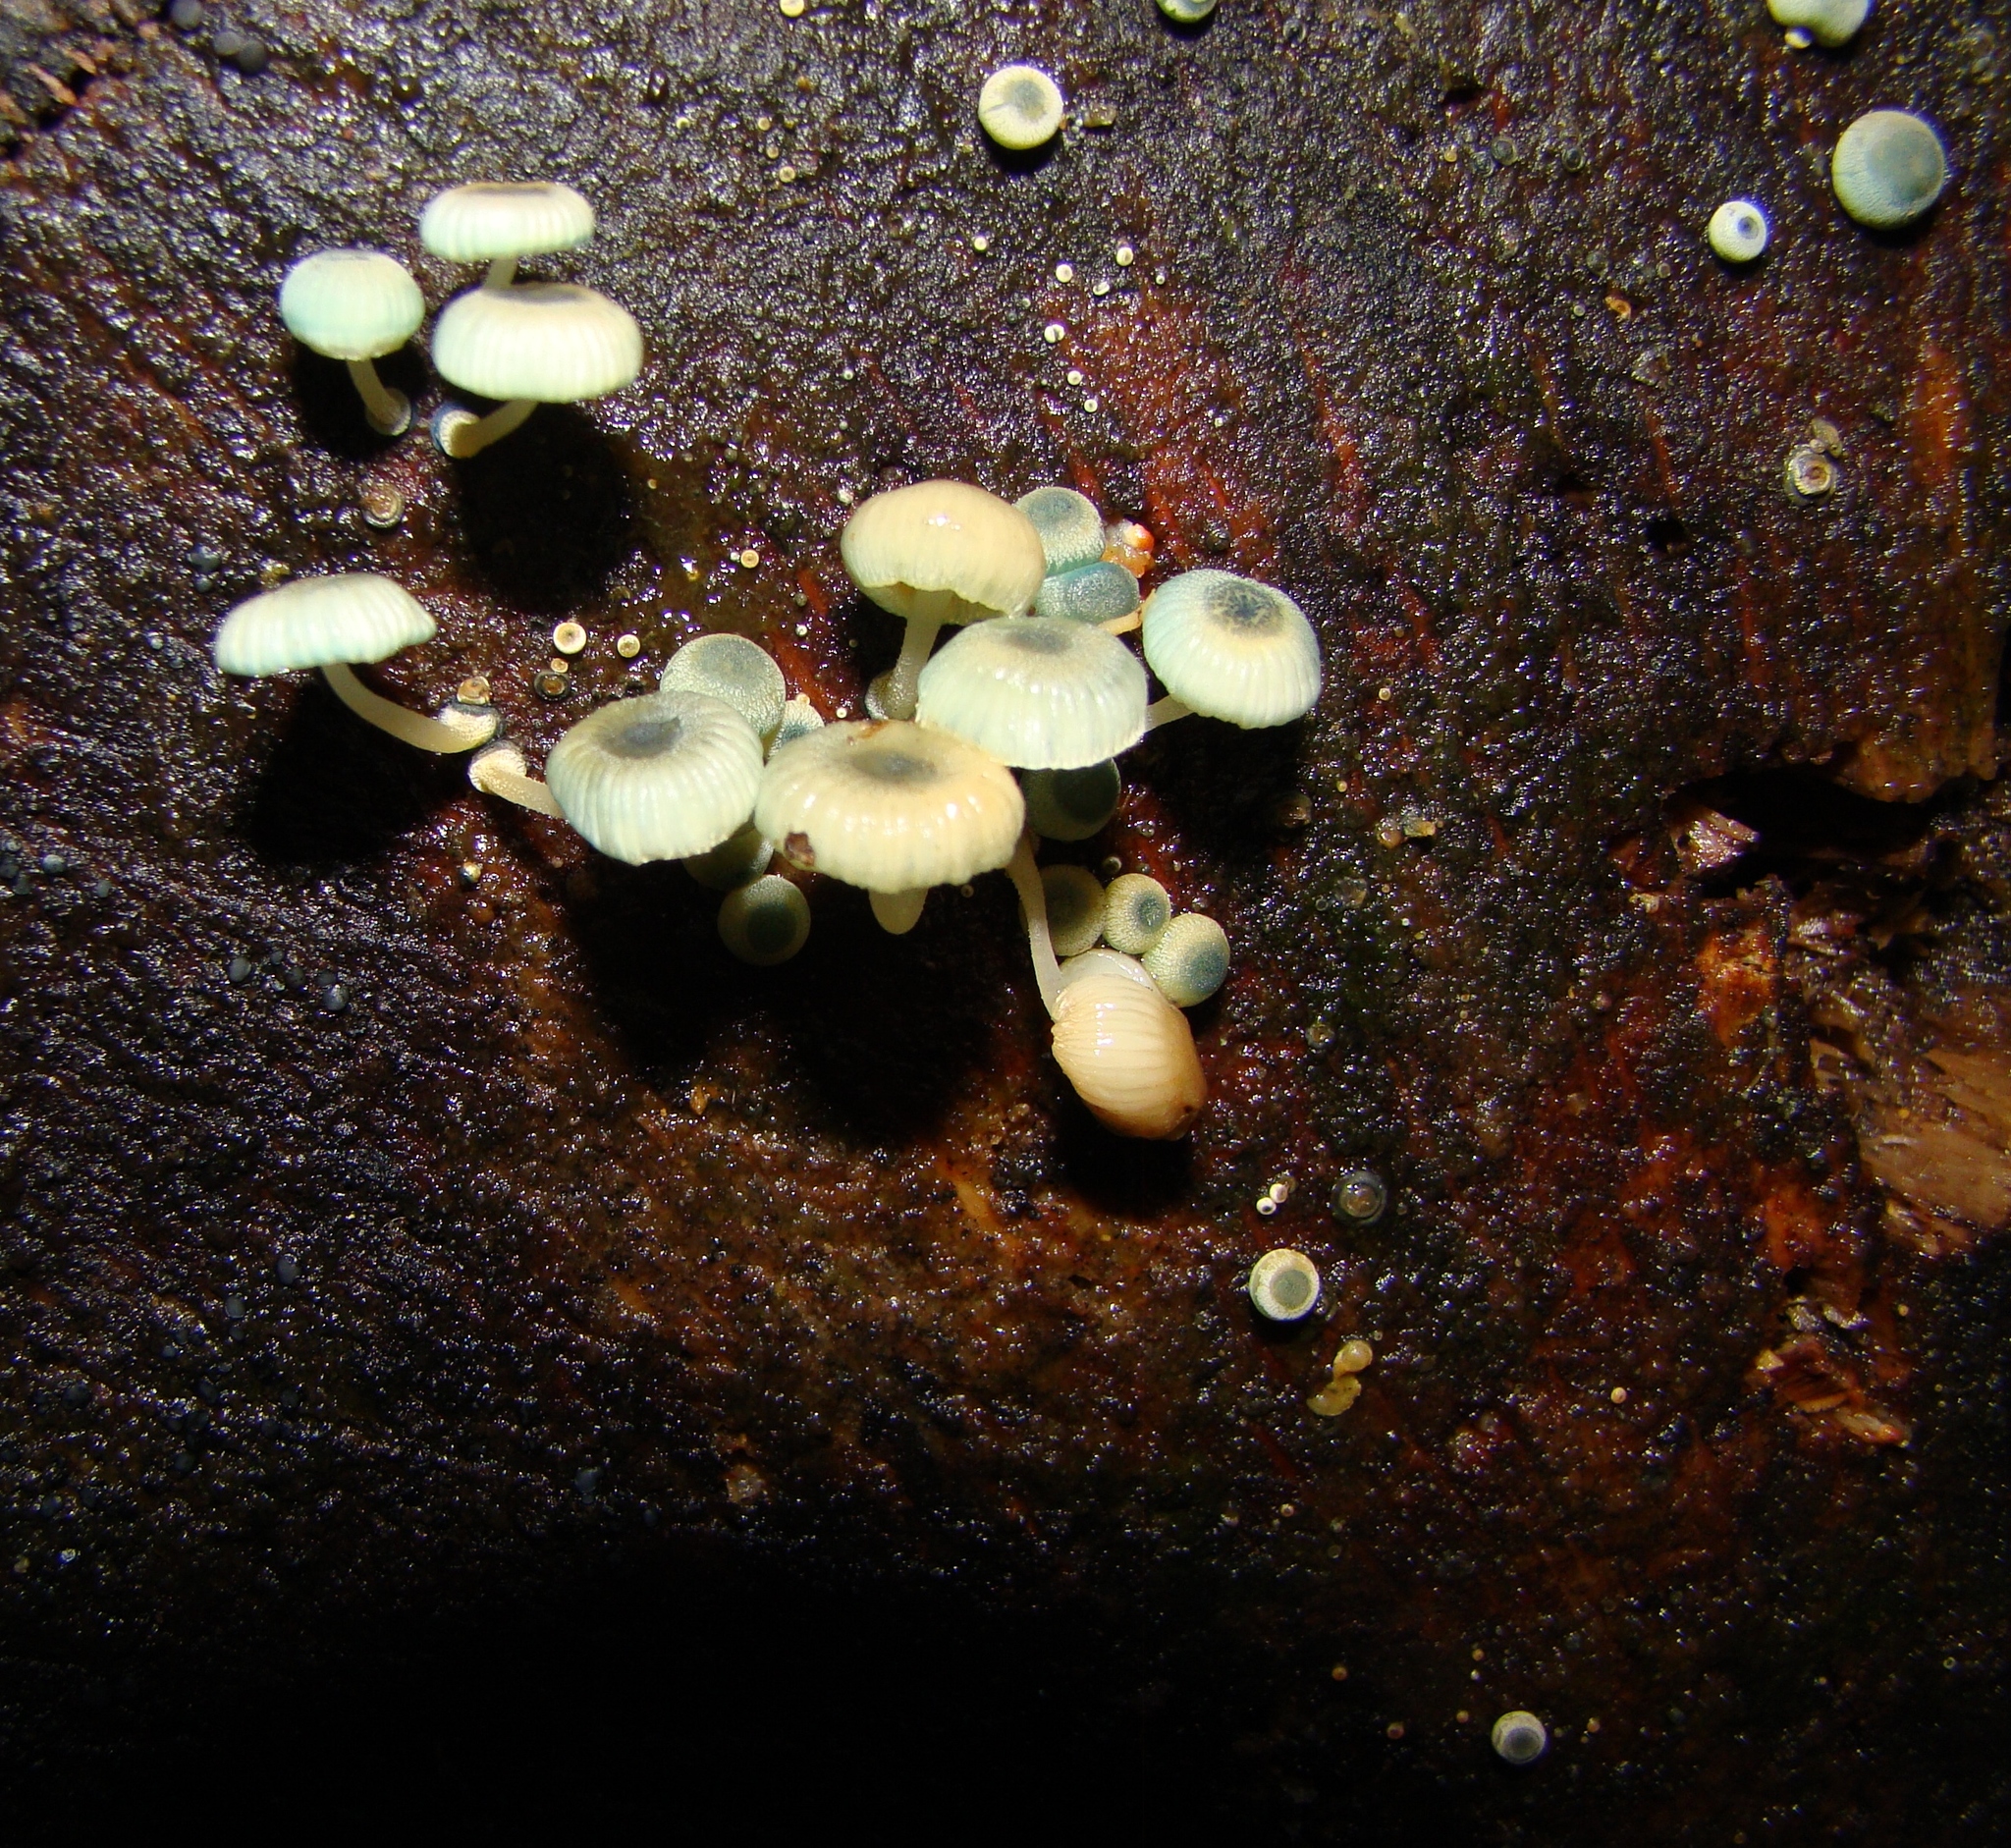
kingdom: Fungi
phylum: Basidiomycota
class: Agaricomycetes
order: Agaricales
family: Mycenaceae
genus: Mycena
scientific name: Mycena interrupta
